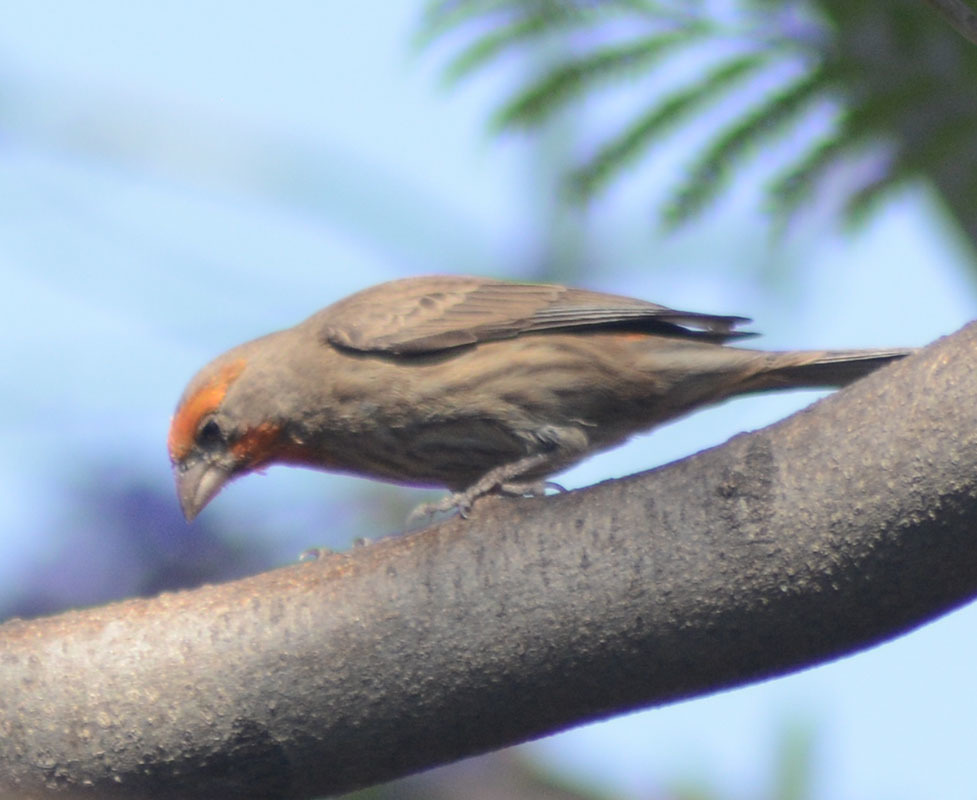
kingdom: Animalia
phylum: Chordata
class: Aves
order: Passeriformes
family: Fringillidae
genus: Haemorhous
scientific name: Haemorhous mexicanus
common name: House finch
